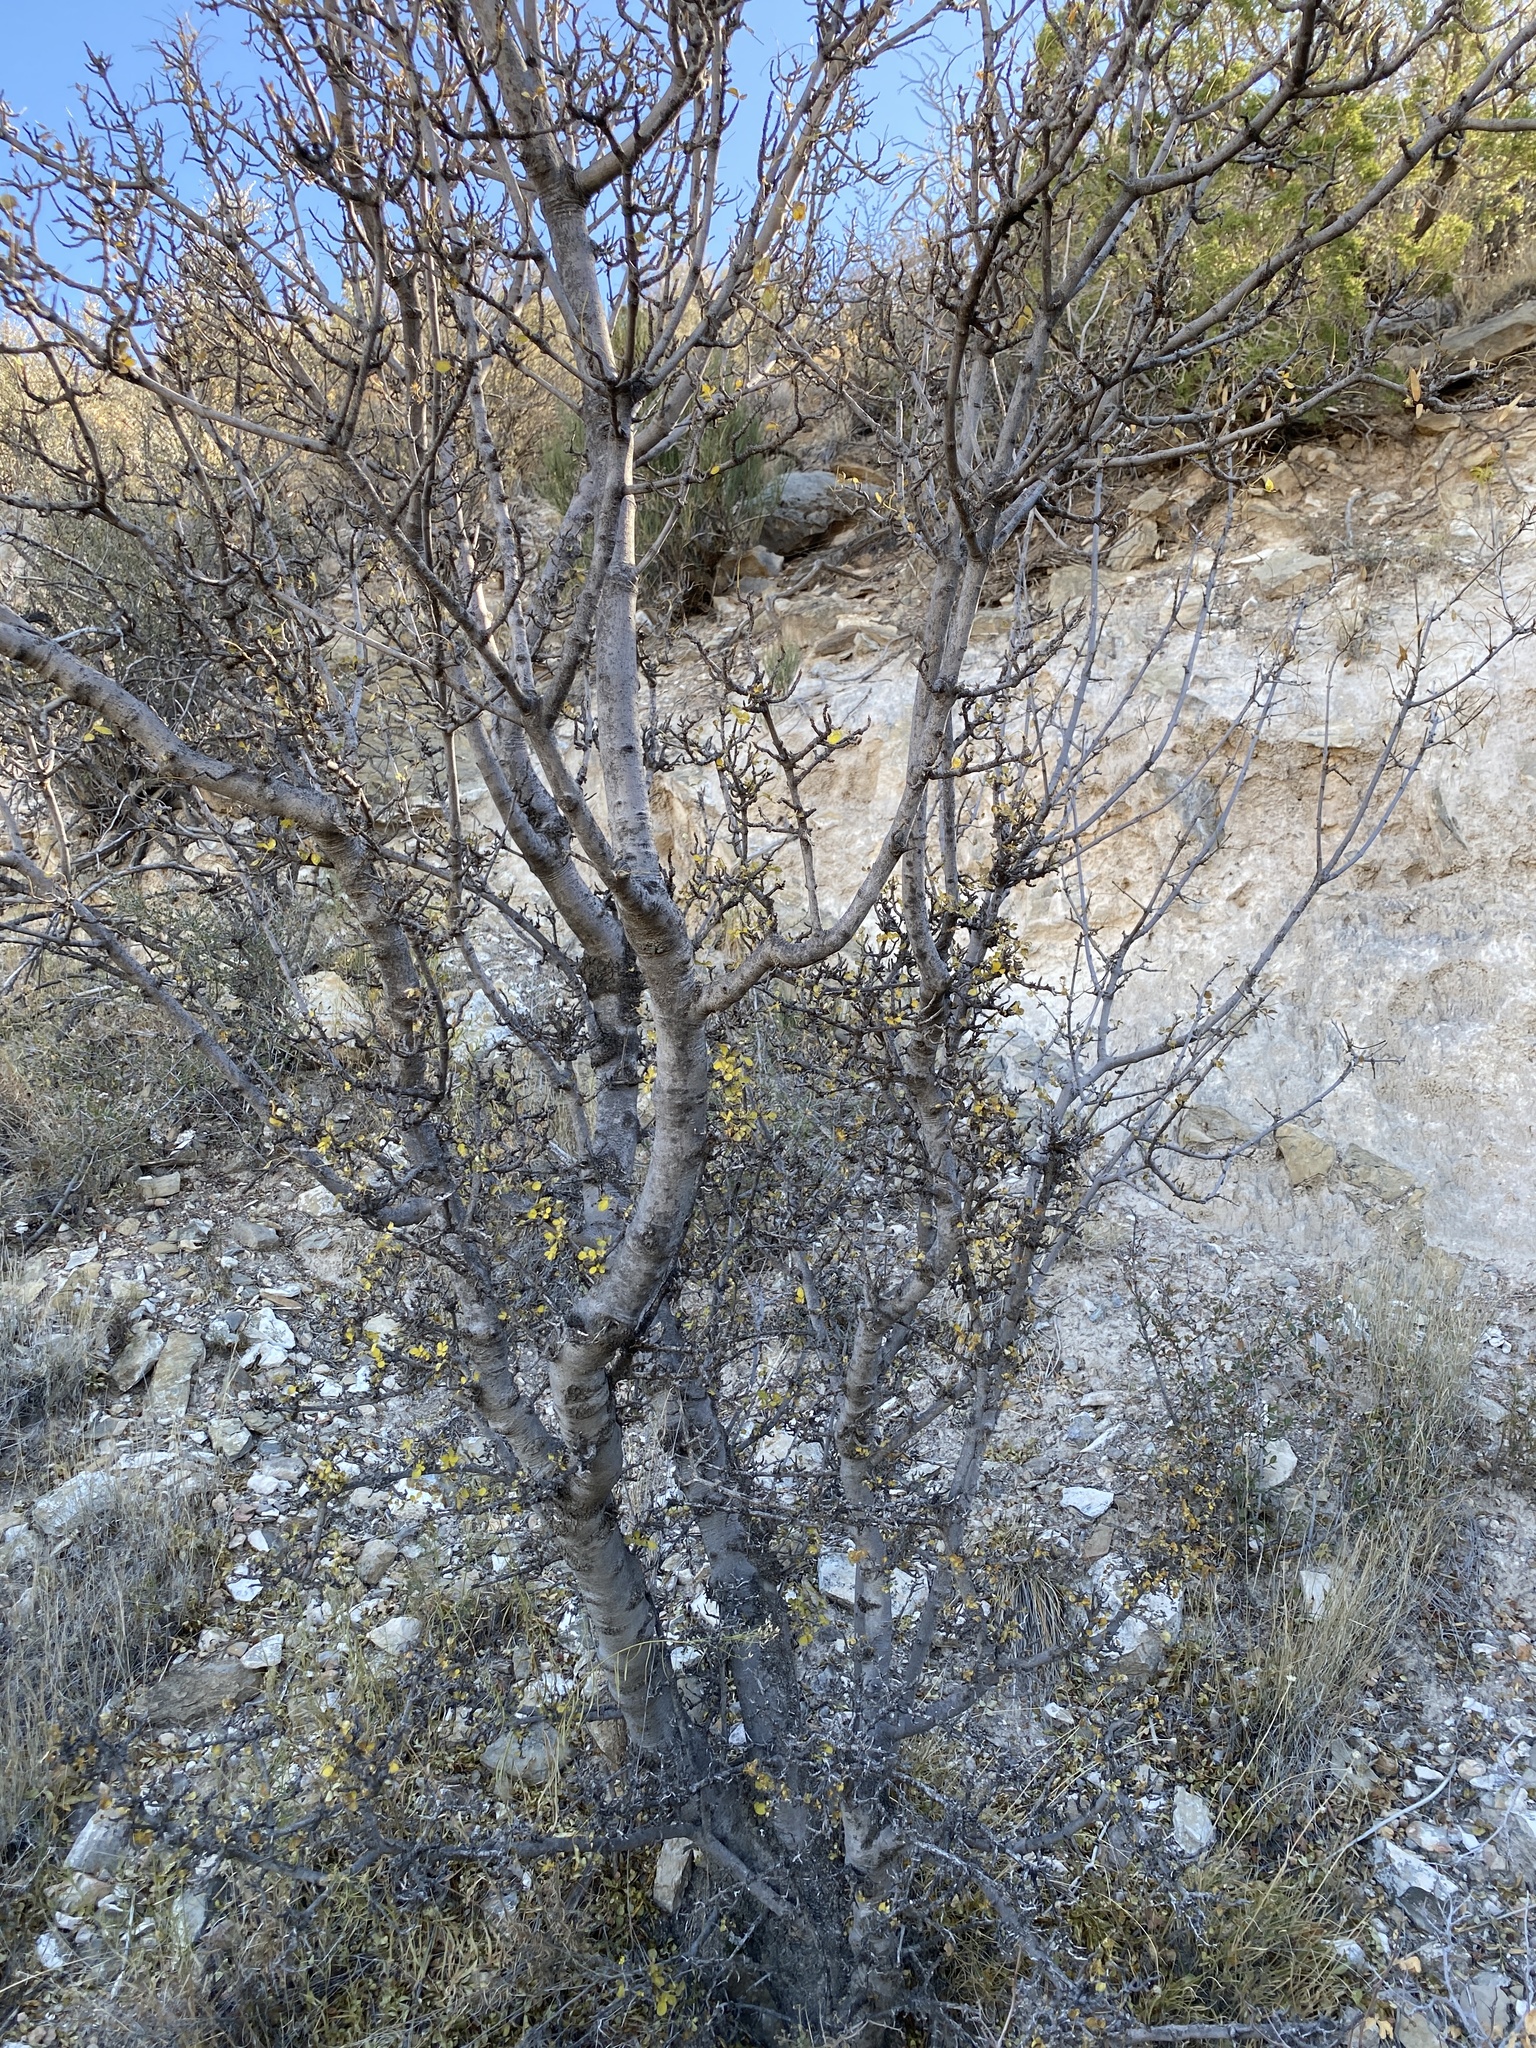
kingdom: Plantae
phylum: Tracheophyta
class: Magnoliopsida
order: Sapindales
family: Anacardiaceae
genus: Rhus
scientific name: Rhus microphylla
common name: Desert sumac
